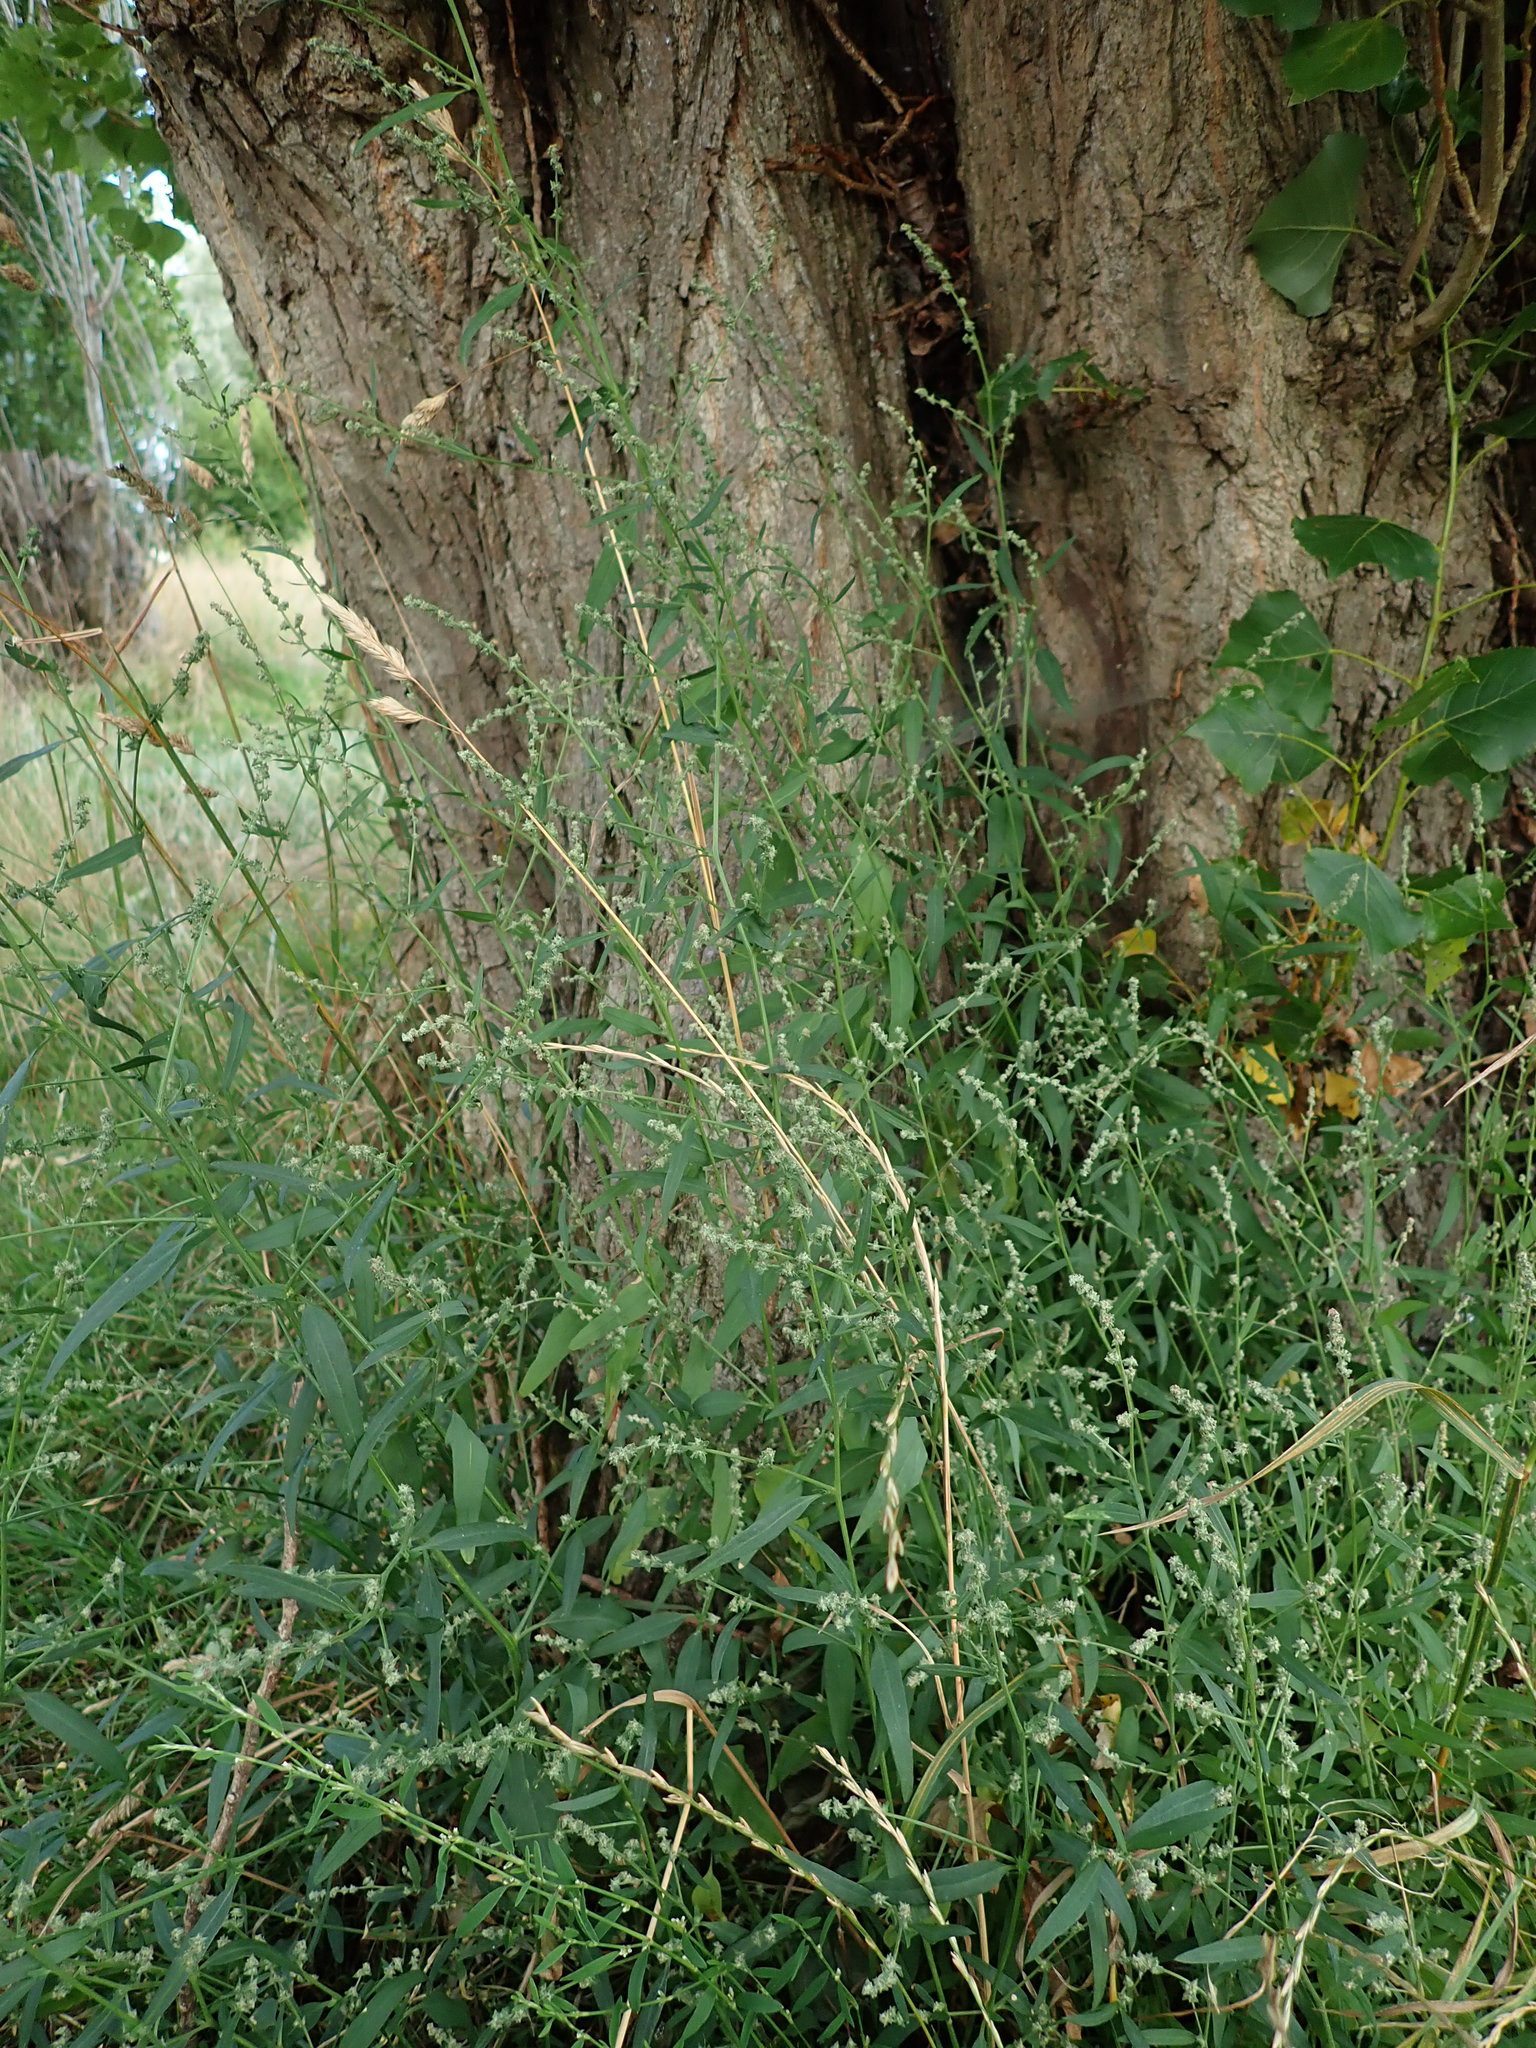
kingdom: Plantae
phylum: Tracheophyta
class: Magnoliopsida
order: Caryophyllales
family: Amaranthaceae
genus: Atriplex
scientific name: Atriplex patula
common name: Common orache
